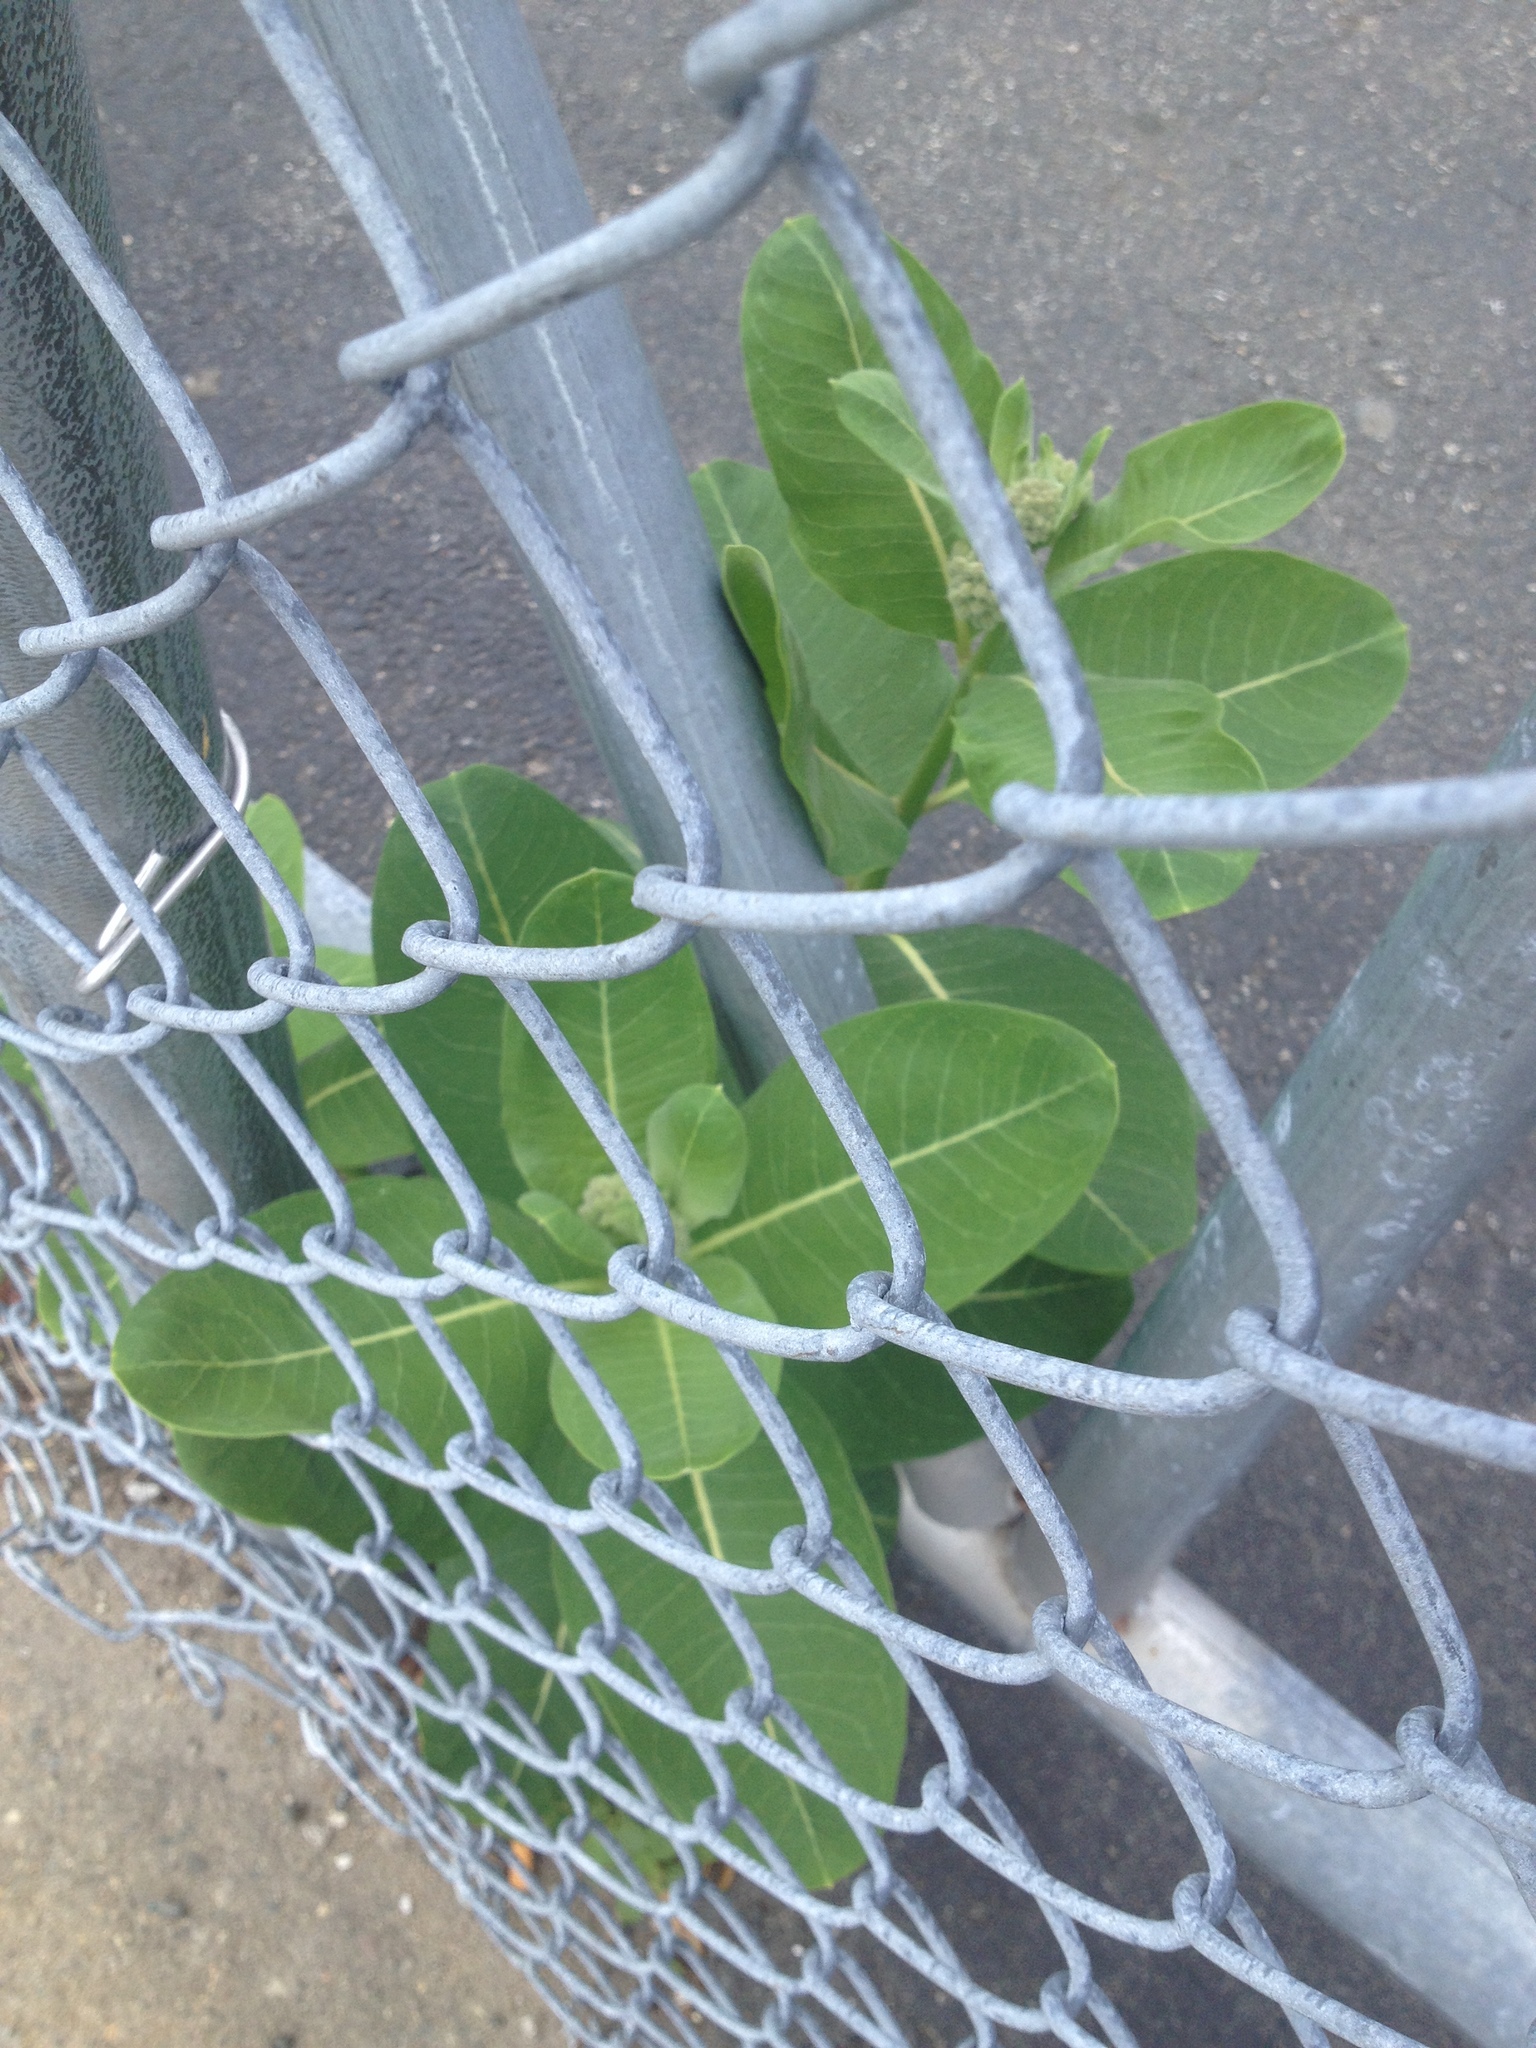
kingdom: Plantae
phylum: Tracheophyta
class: Magnoliopsida
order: Gentianales
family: Apocynaceae
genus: Asclepias
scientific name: Asclepias syriaca
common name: Common milkweed
